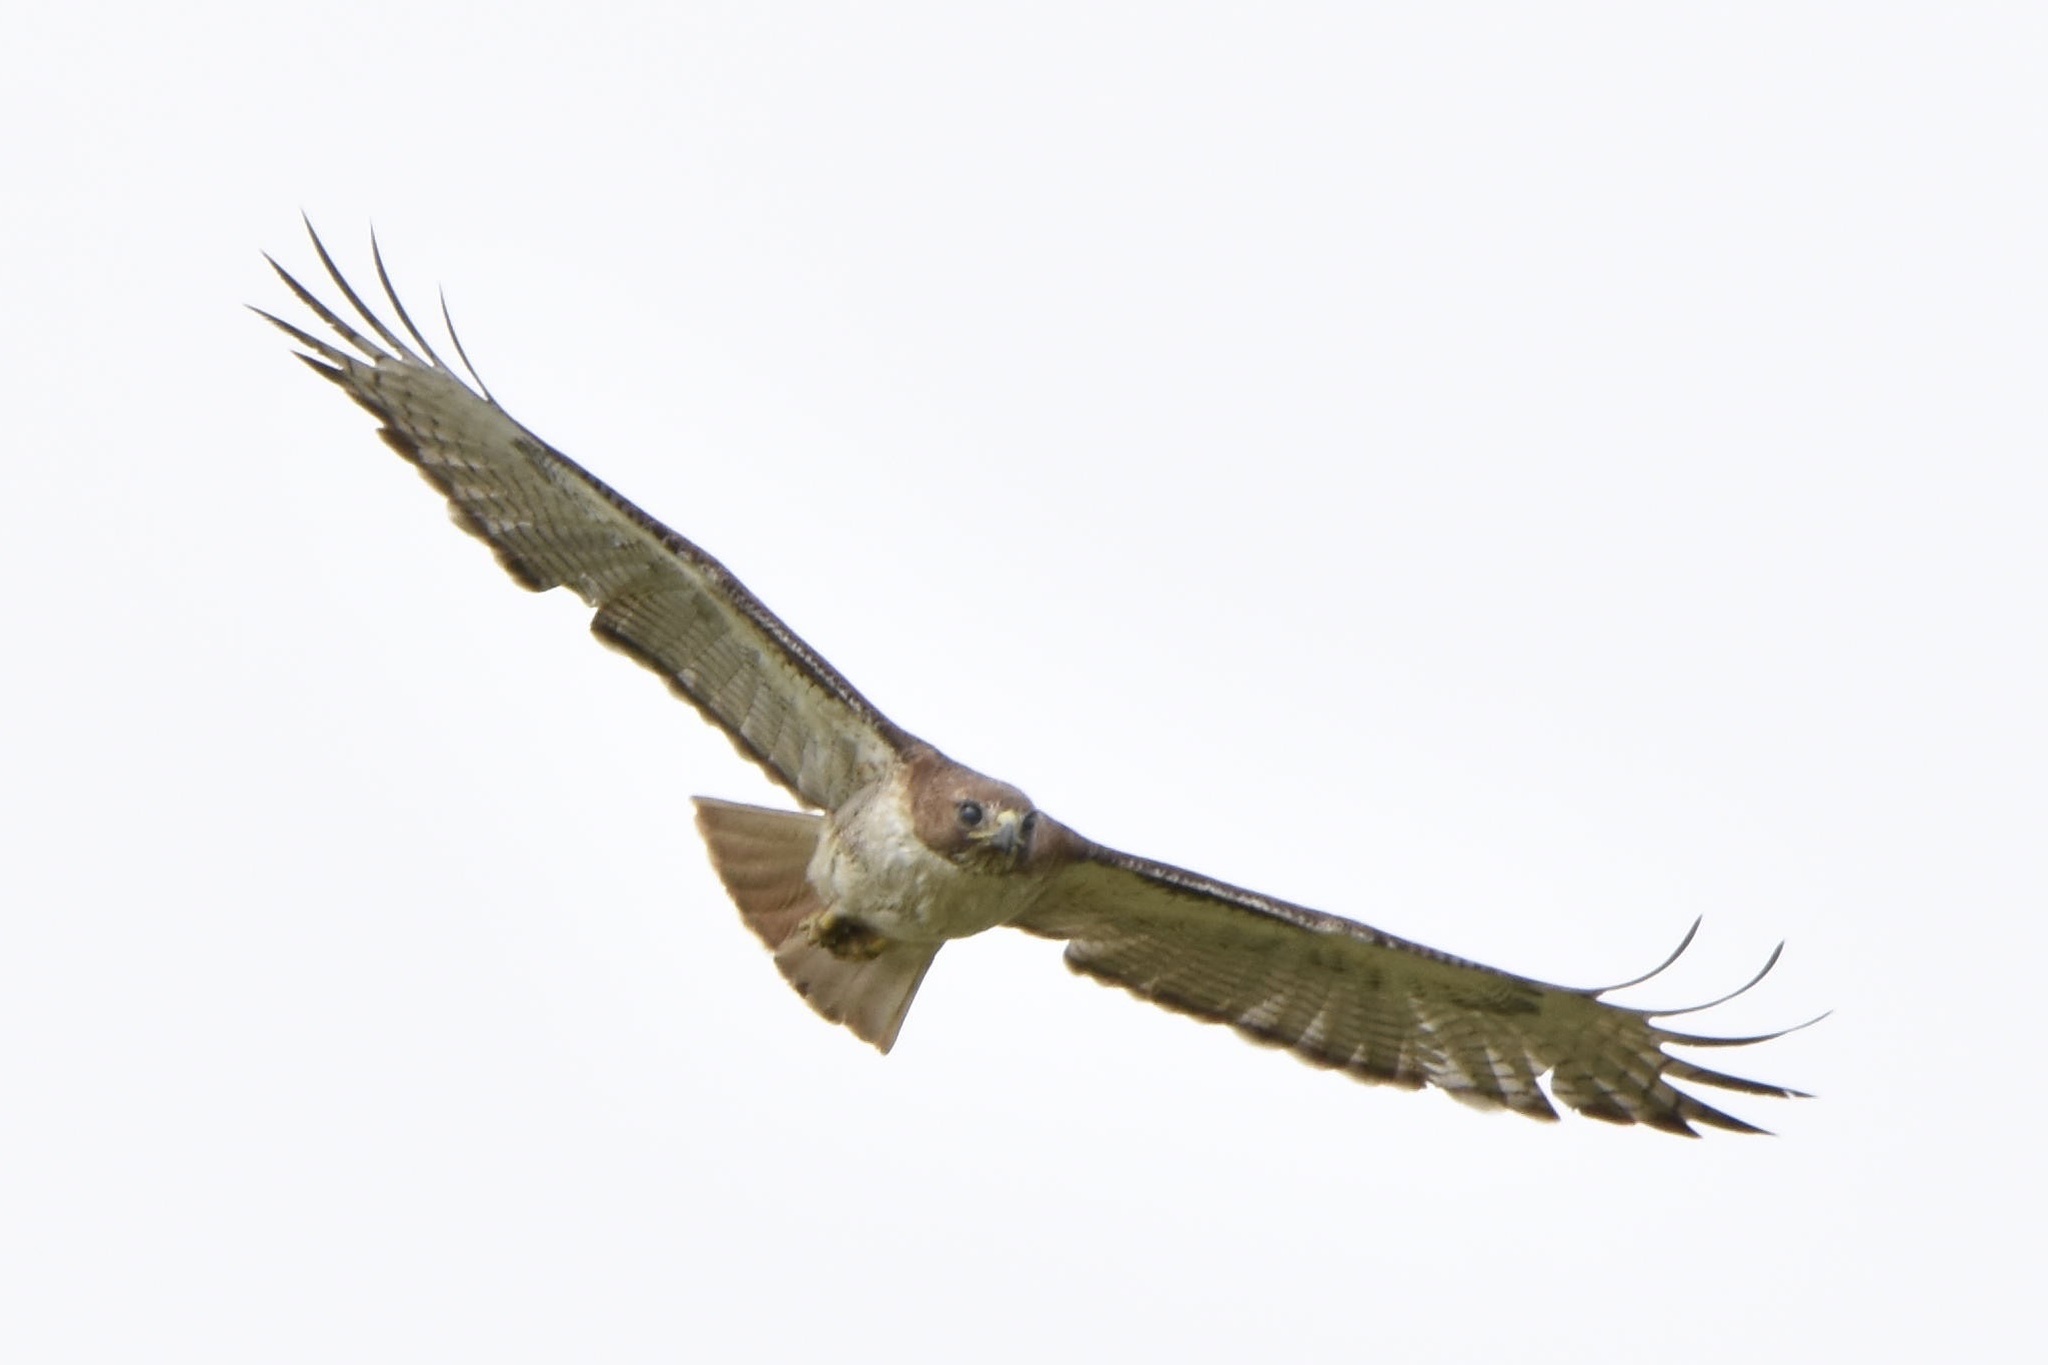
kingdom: Animalia
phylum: Chordata
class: Aves
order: Accipitriformes
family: Accipitridae
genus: Buteo
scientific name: Buteo jamaicensis
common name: Red-tailed hawk
